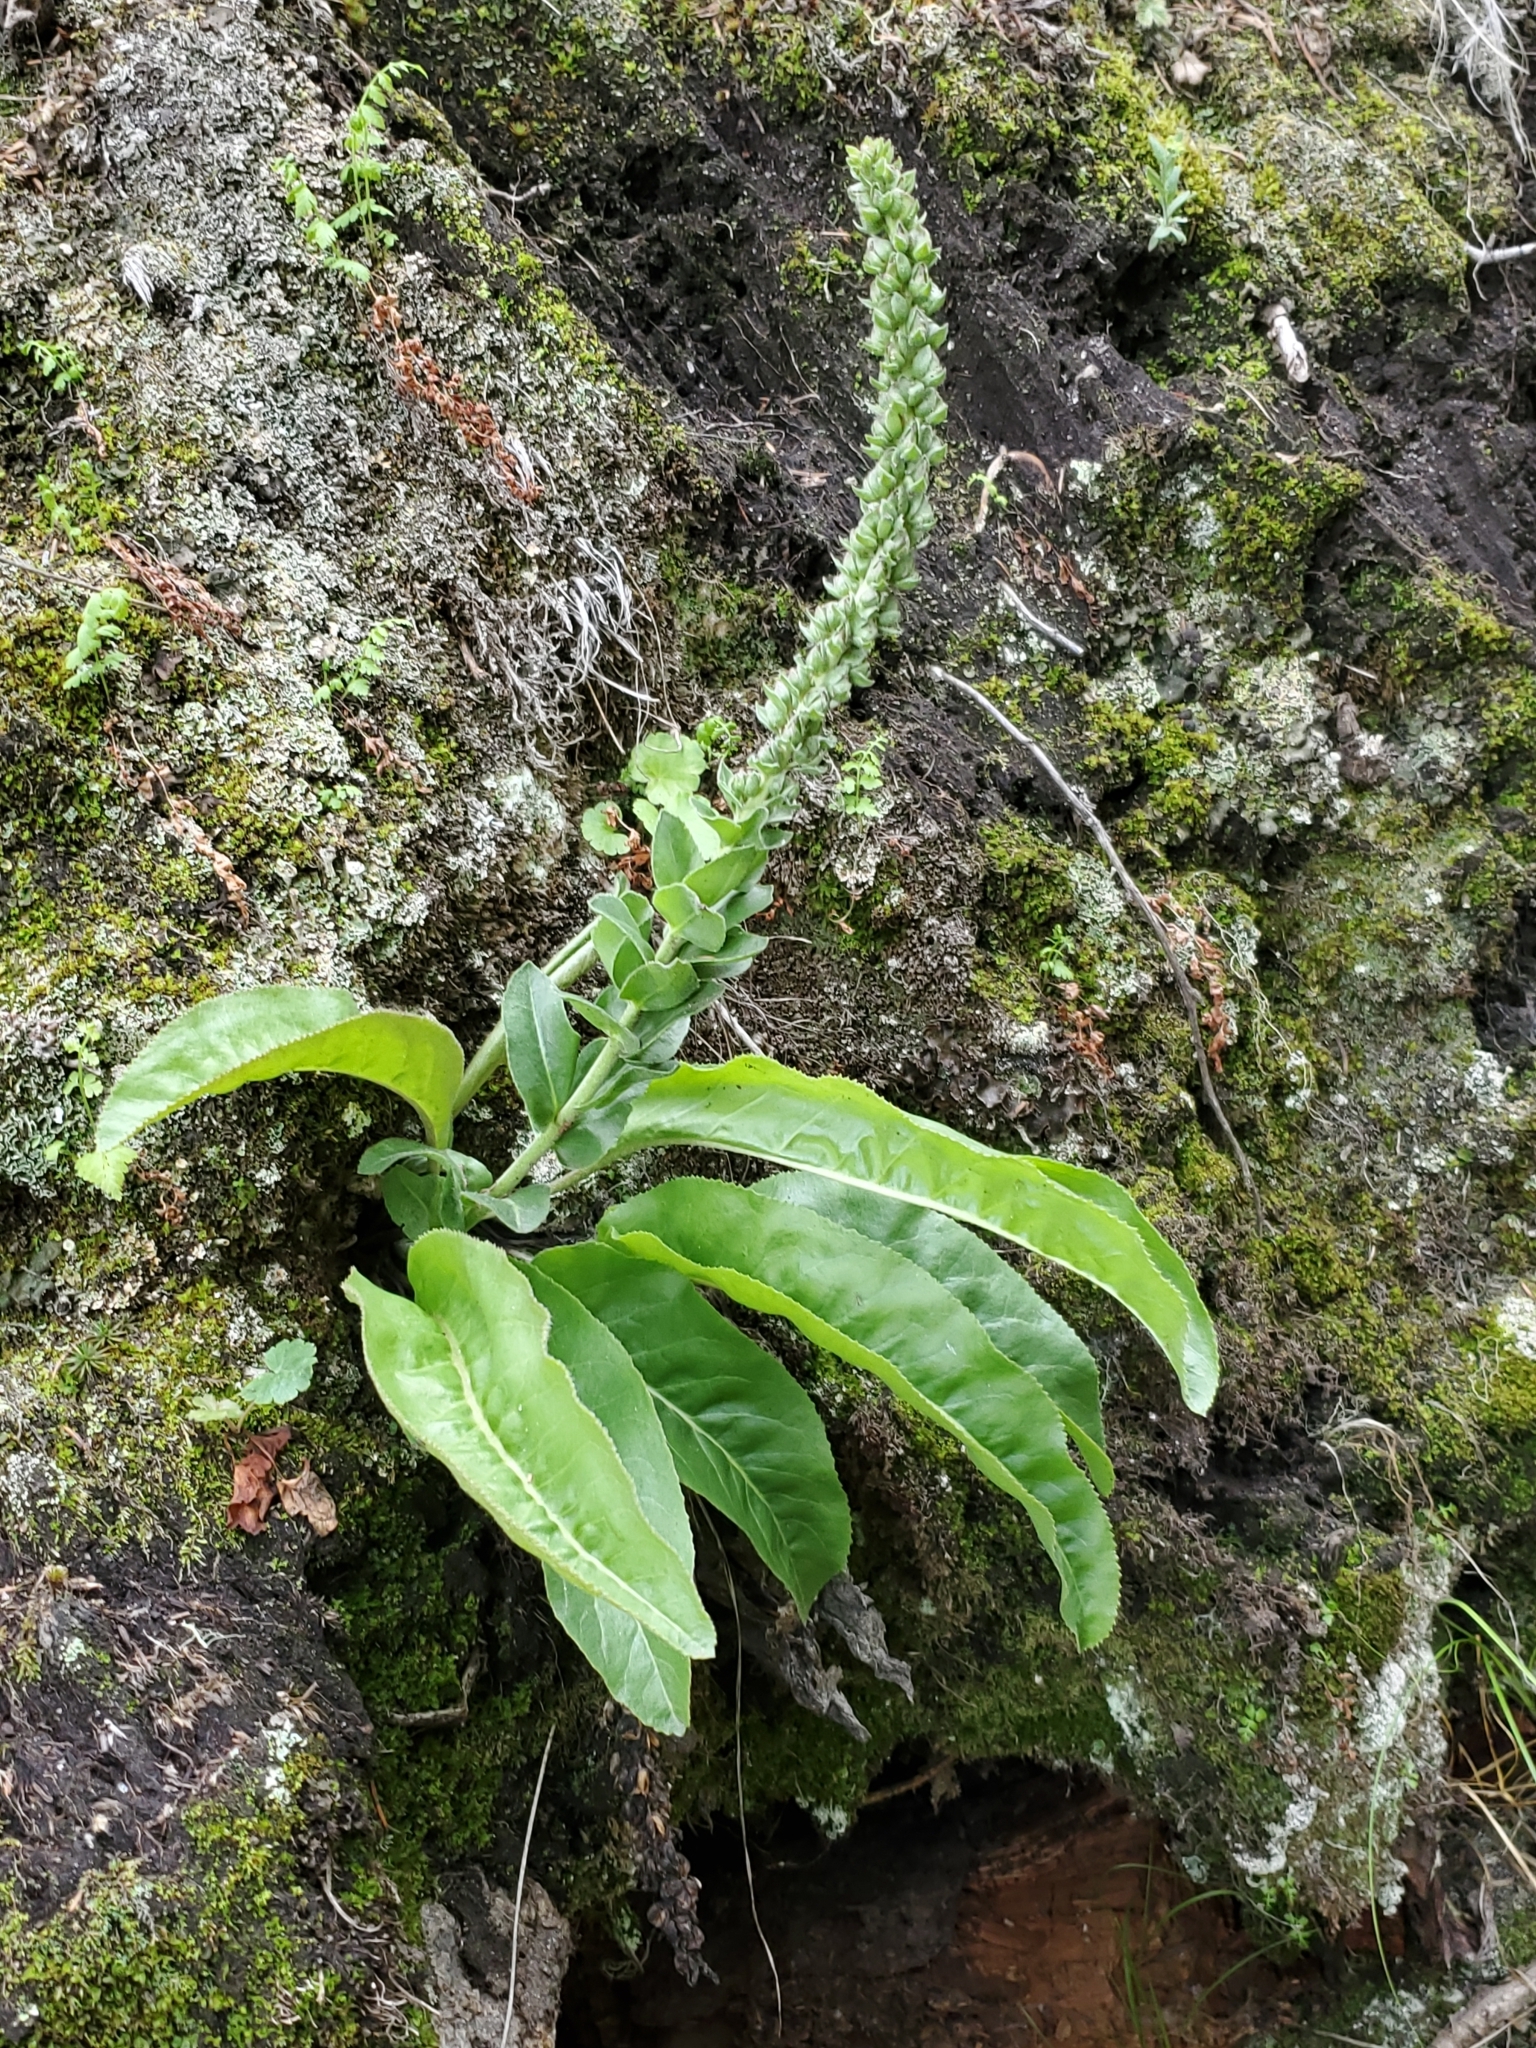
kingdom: Plantae
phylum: Tracheophyta
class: Magnoliopsida
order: Lamiales
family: Plantaginaceae
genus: Veronica
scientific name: Veronica plantaginea
